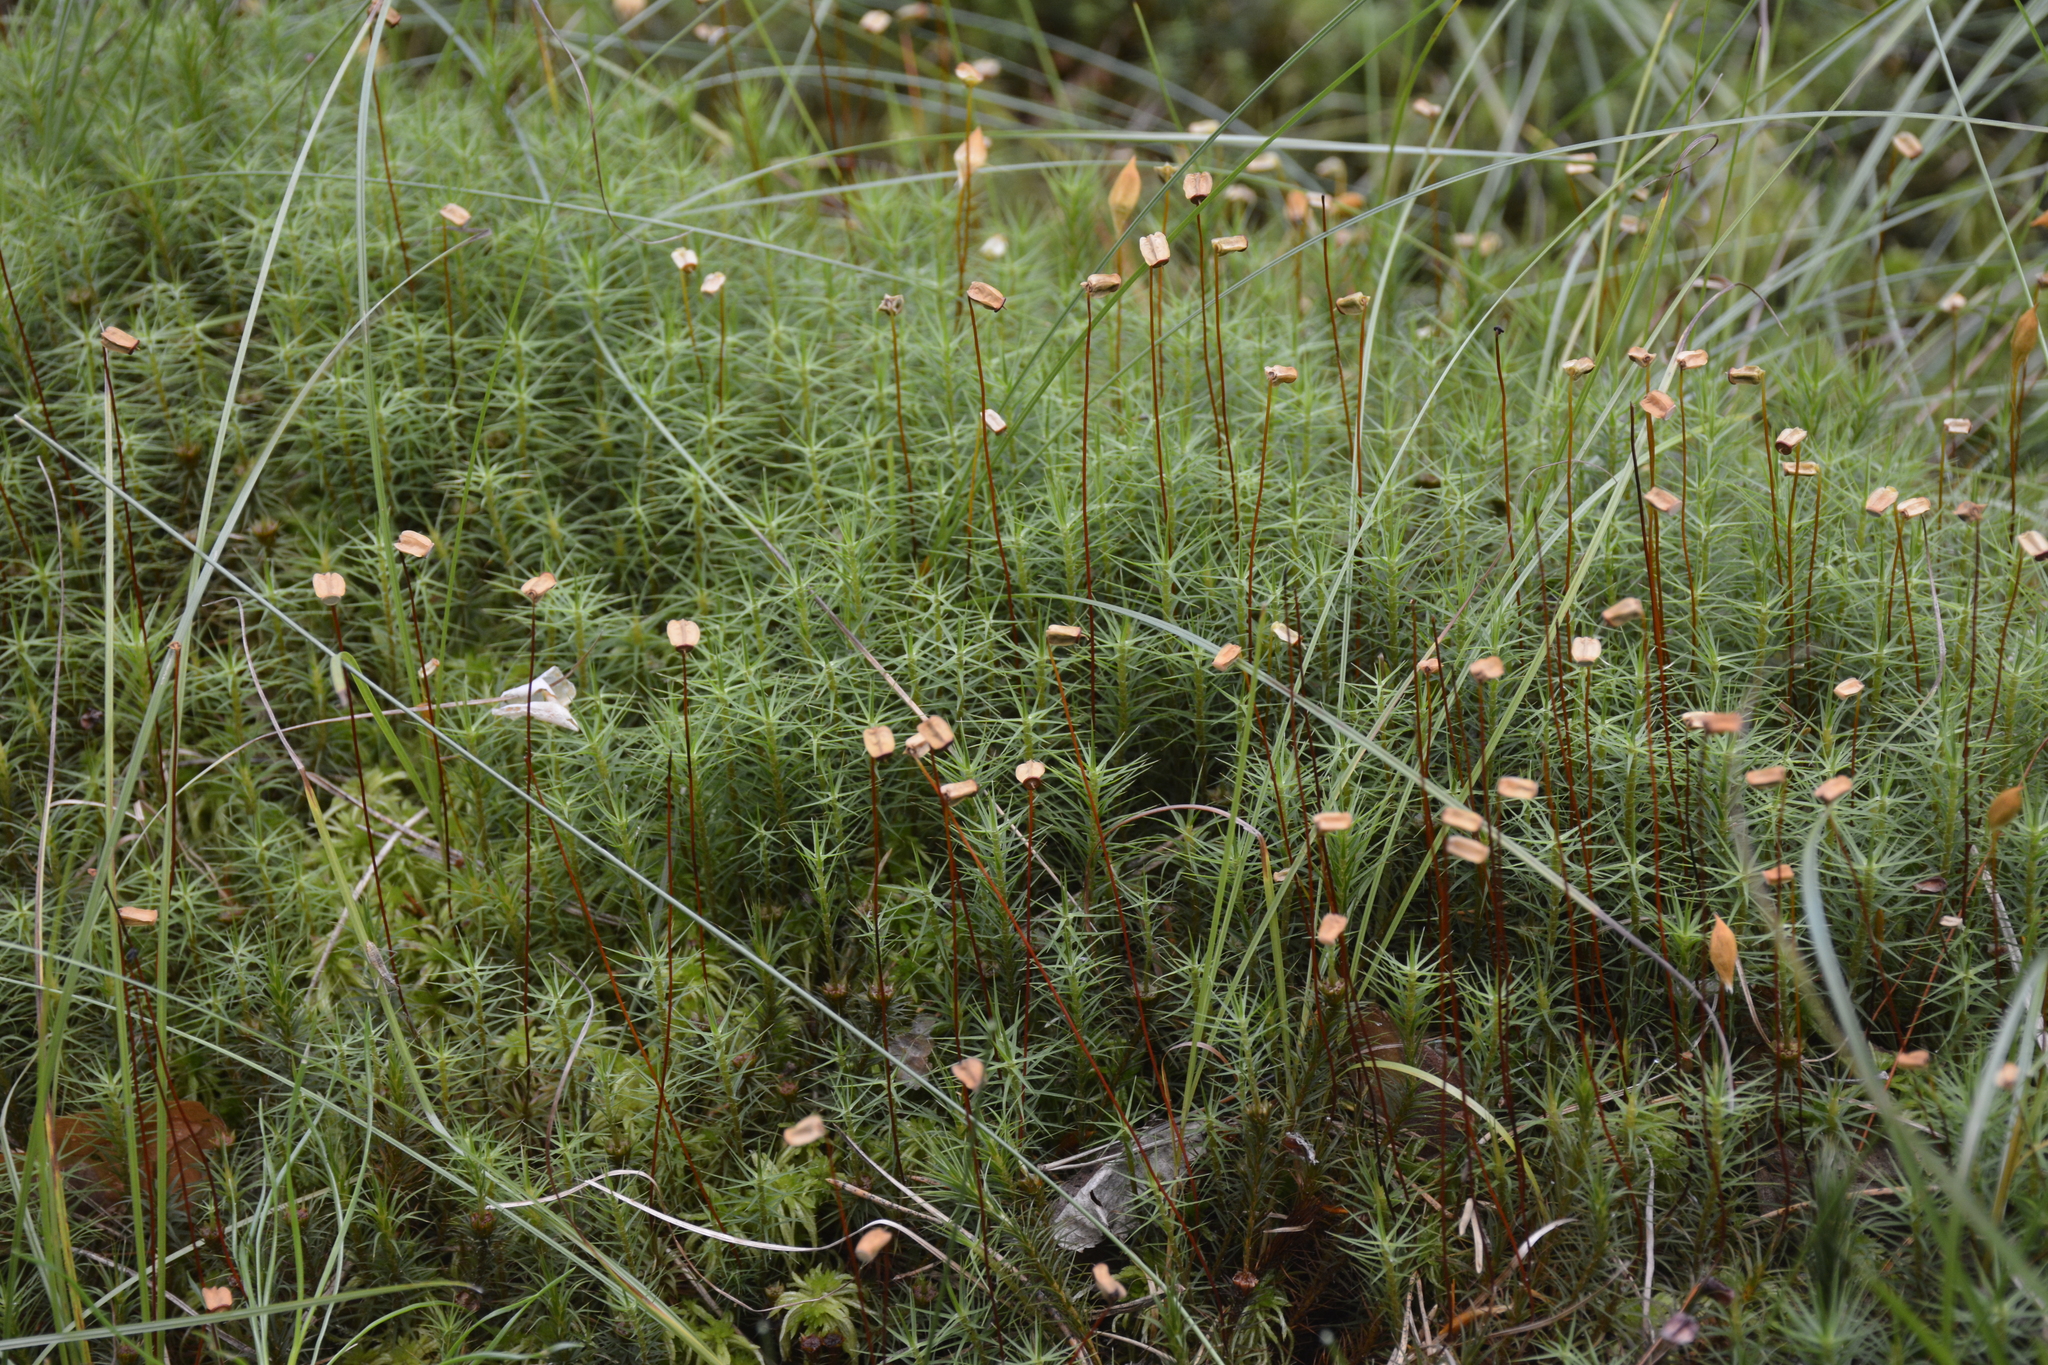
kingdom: Plantae
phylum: Bryophyta
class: Polytrichopsida
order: Polytrichales
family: Polytrichaceae
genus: Polytrichum
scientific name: Polytrichum commune
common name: Common haircap
